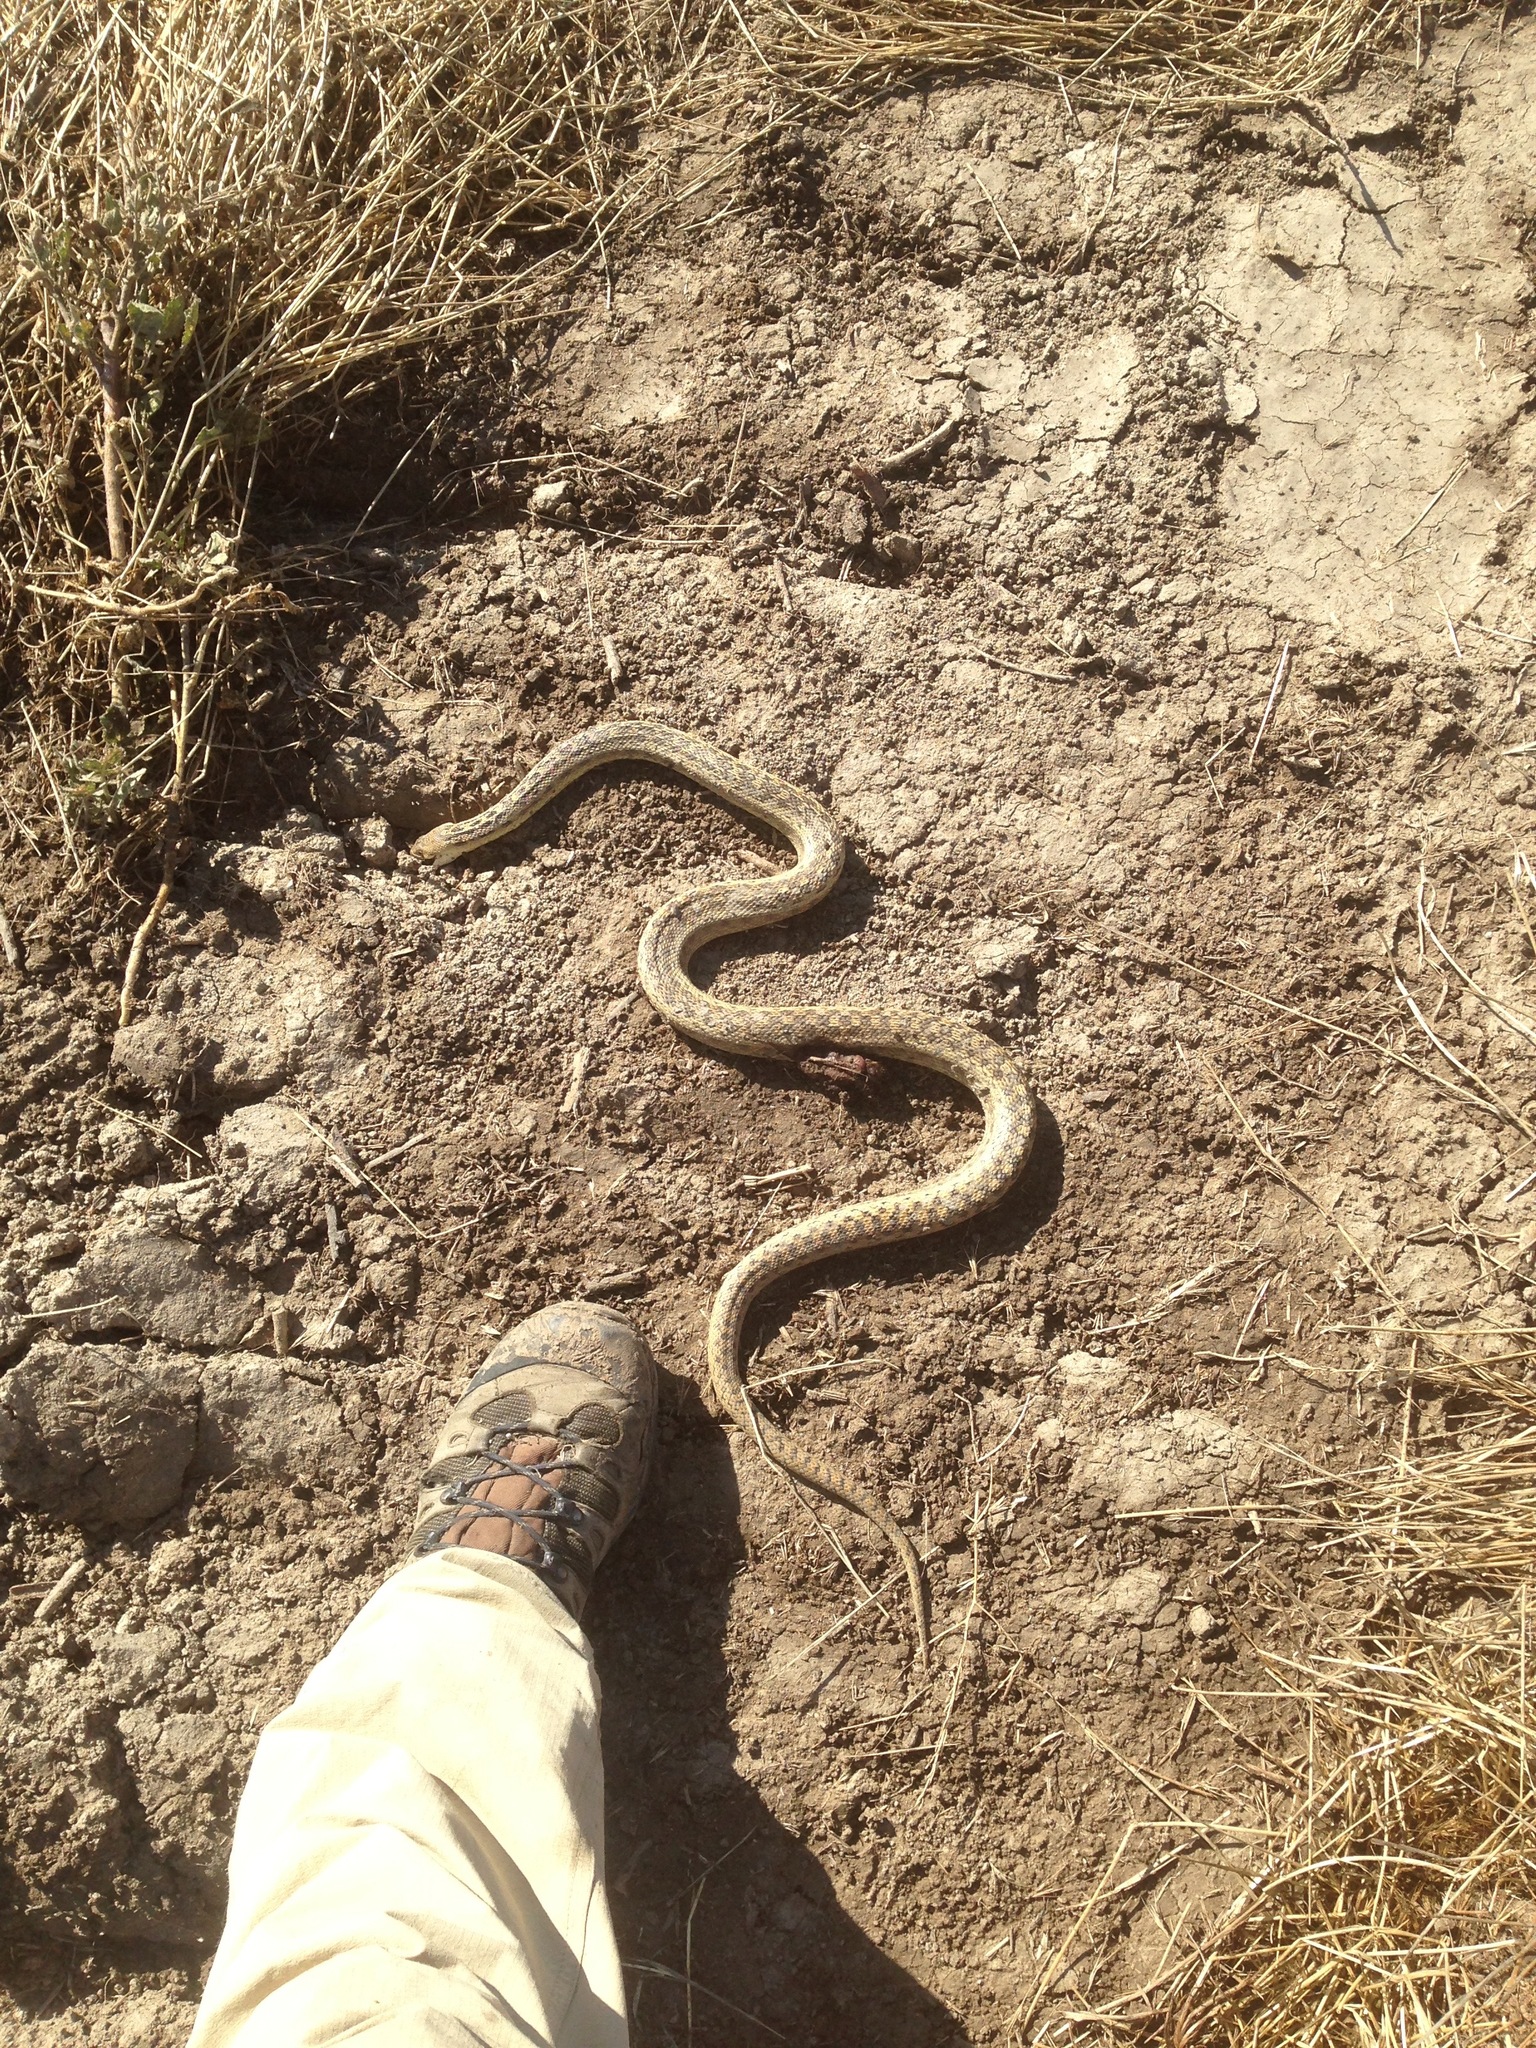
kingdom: Animalia
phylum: Chordata
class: Squamata
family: Colubridae
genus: Pituophis
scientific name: Pituophis catenifer
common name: Gopher snake
